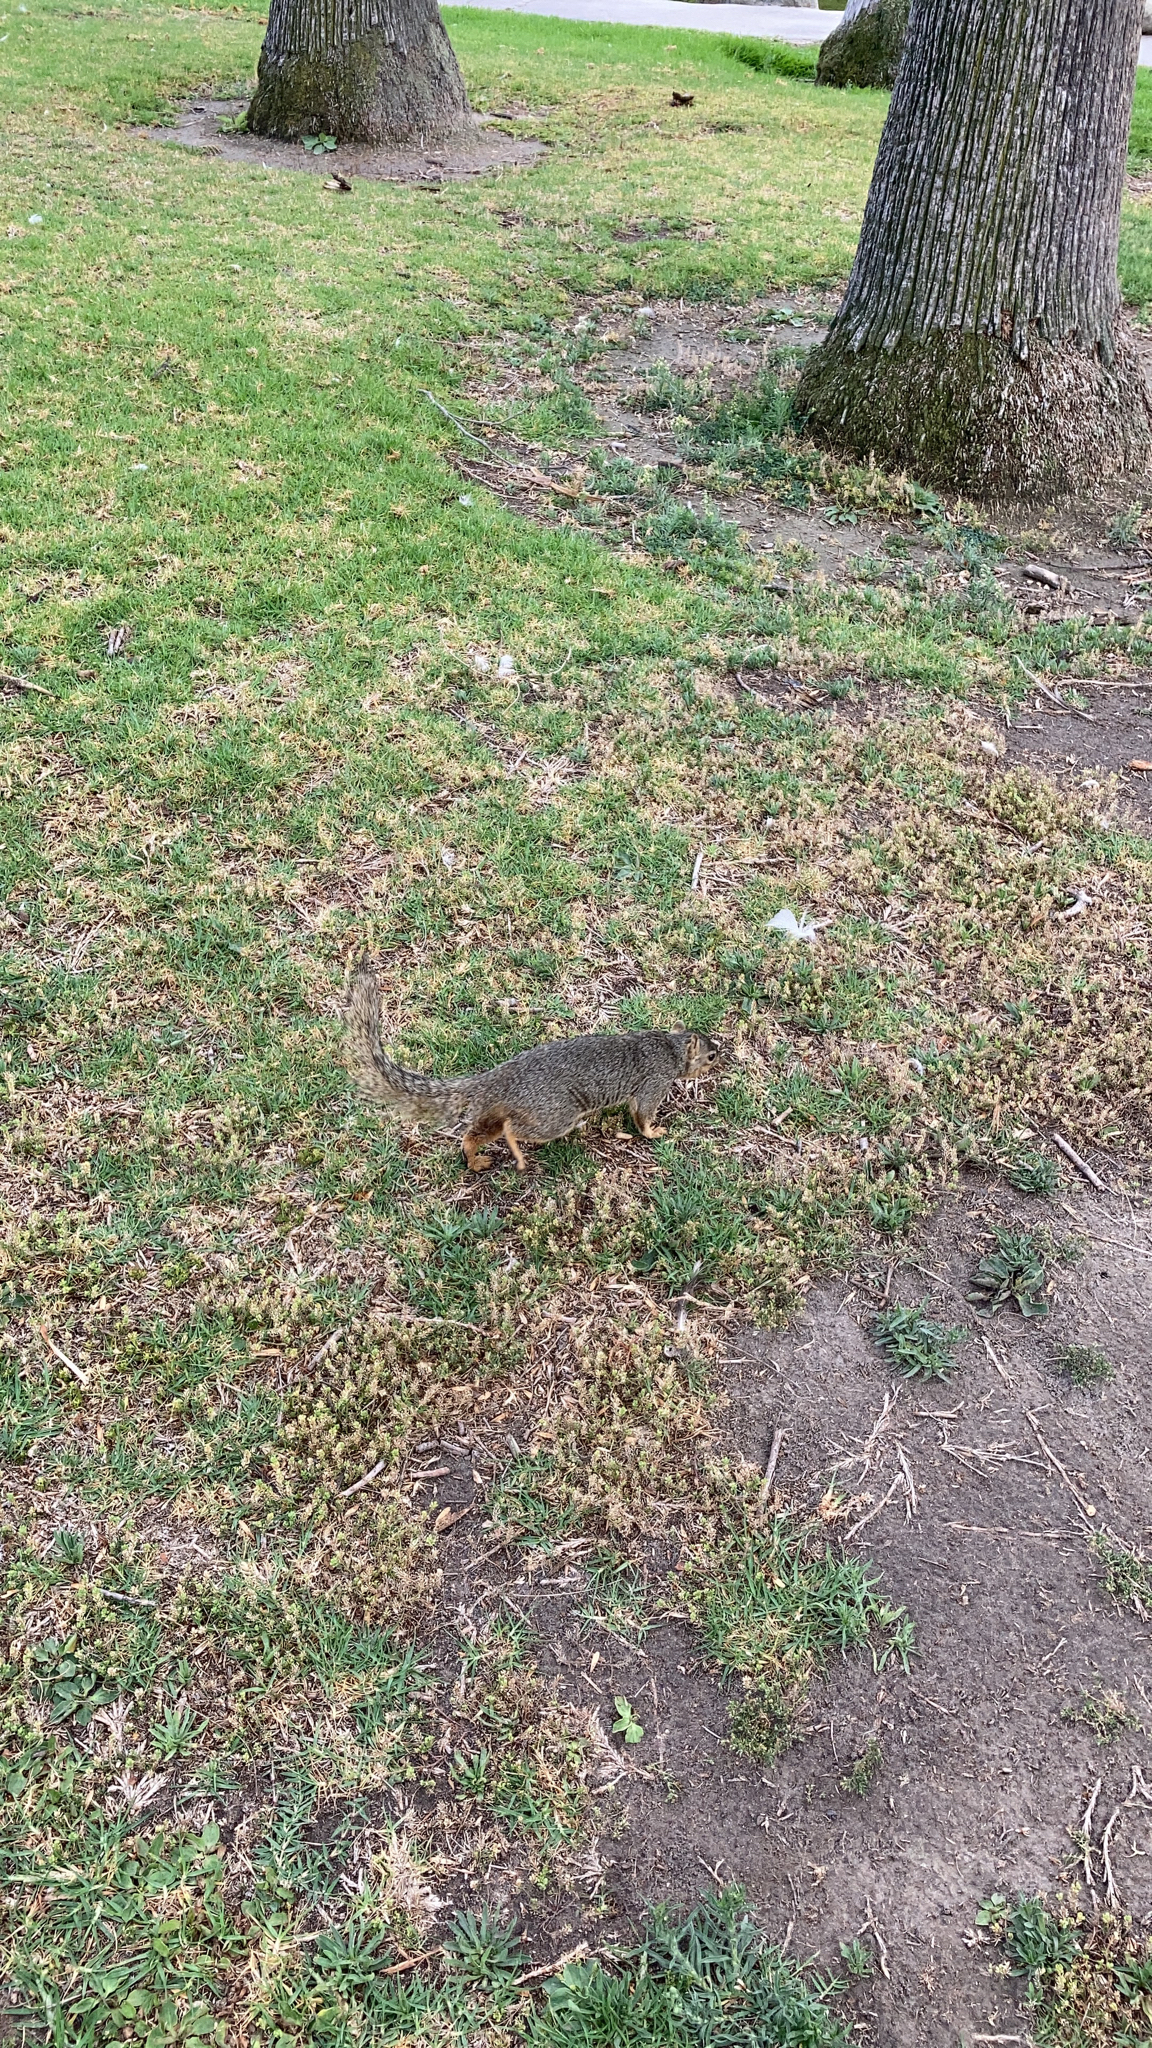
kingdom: Animalia
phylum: Chordata
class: Mammalia
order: Rodentia
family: Sciuridae
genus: Sciurus
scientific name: Sciurus niger
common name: Fox squirrel
